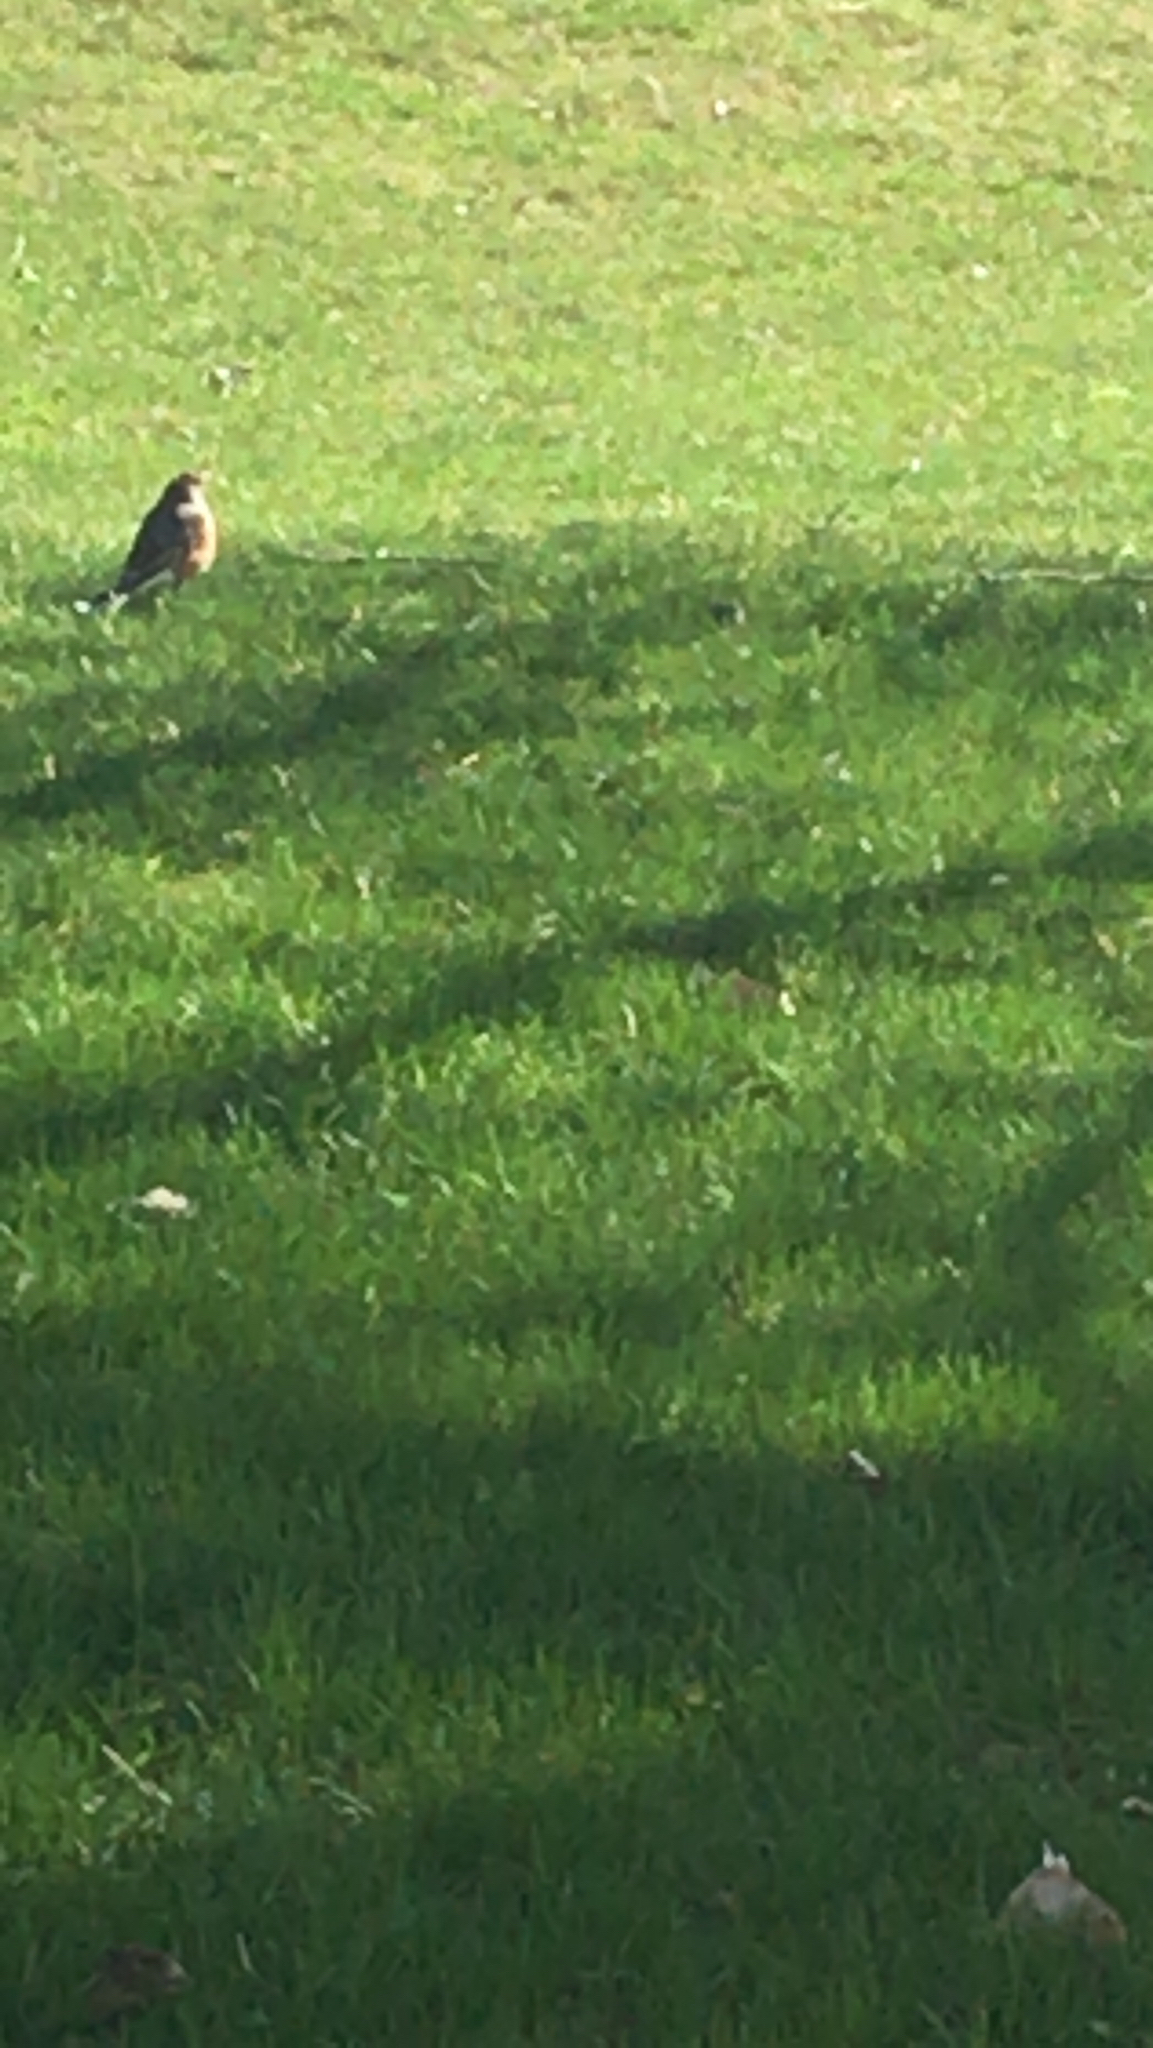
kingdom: Animalia
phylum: Chordata
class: Aves
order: Passeriformes
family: Turdidae
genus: Turdus
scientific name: Turdus migratorius
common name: American robin
